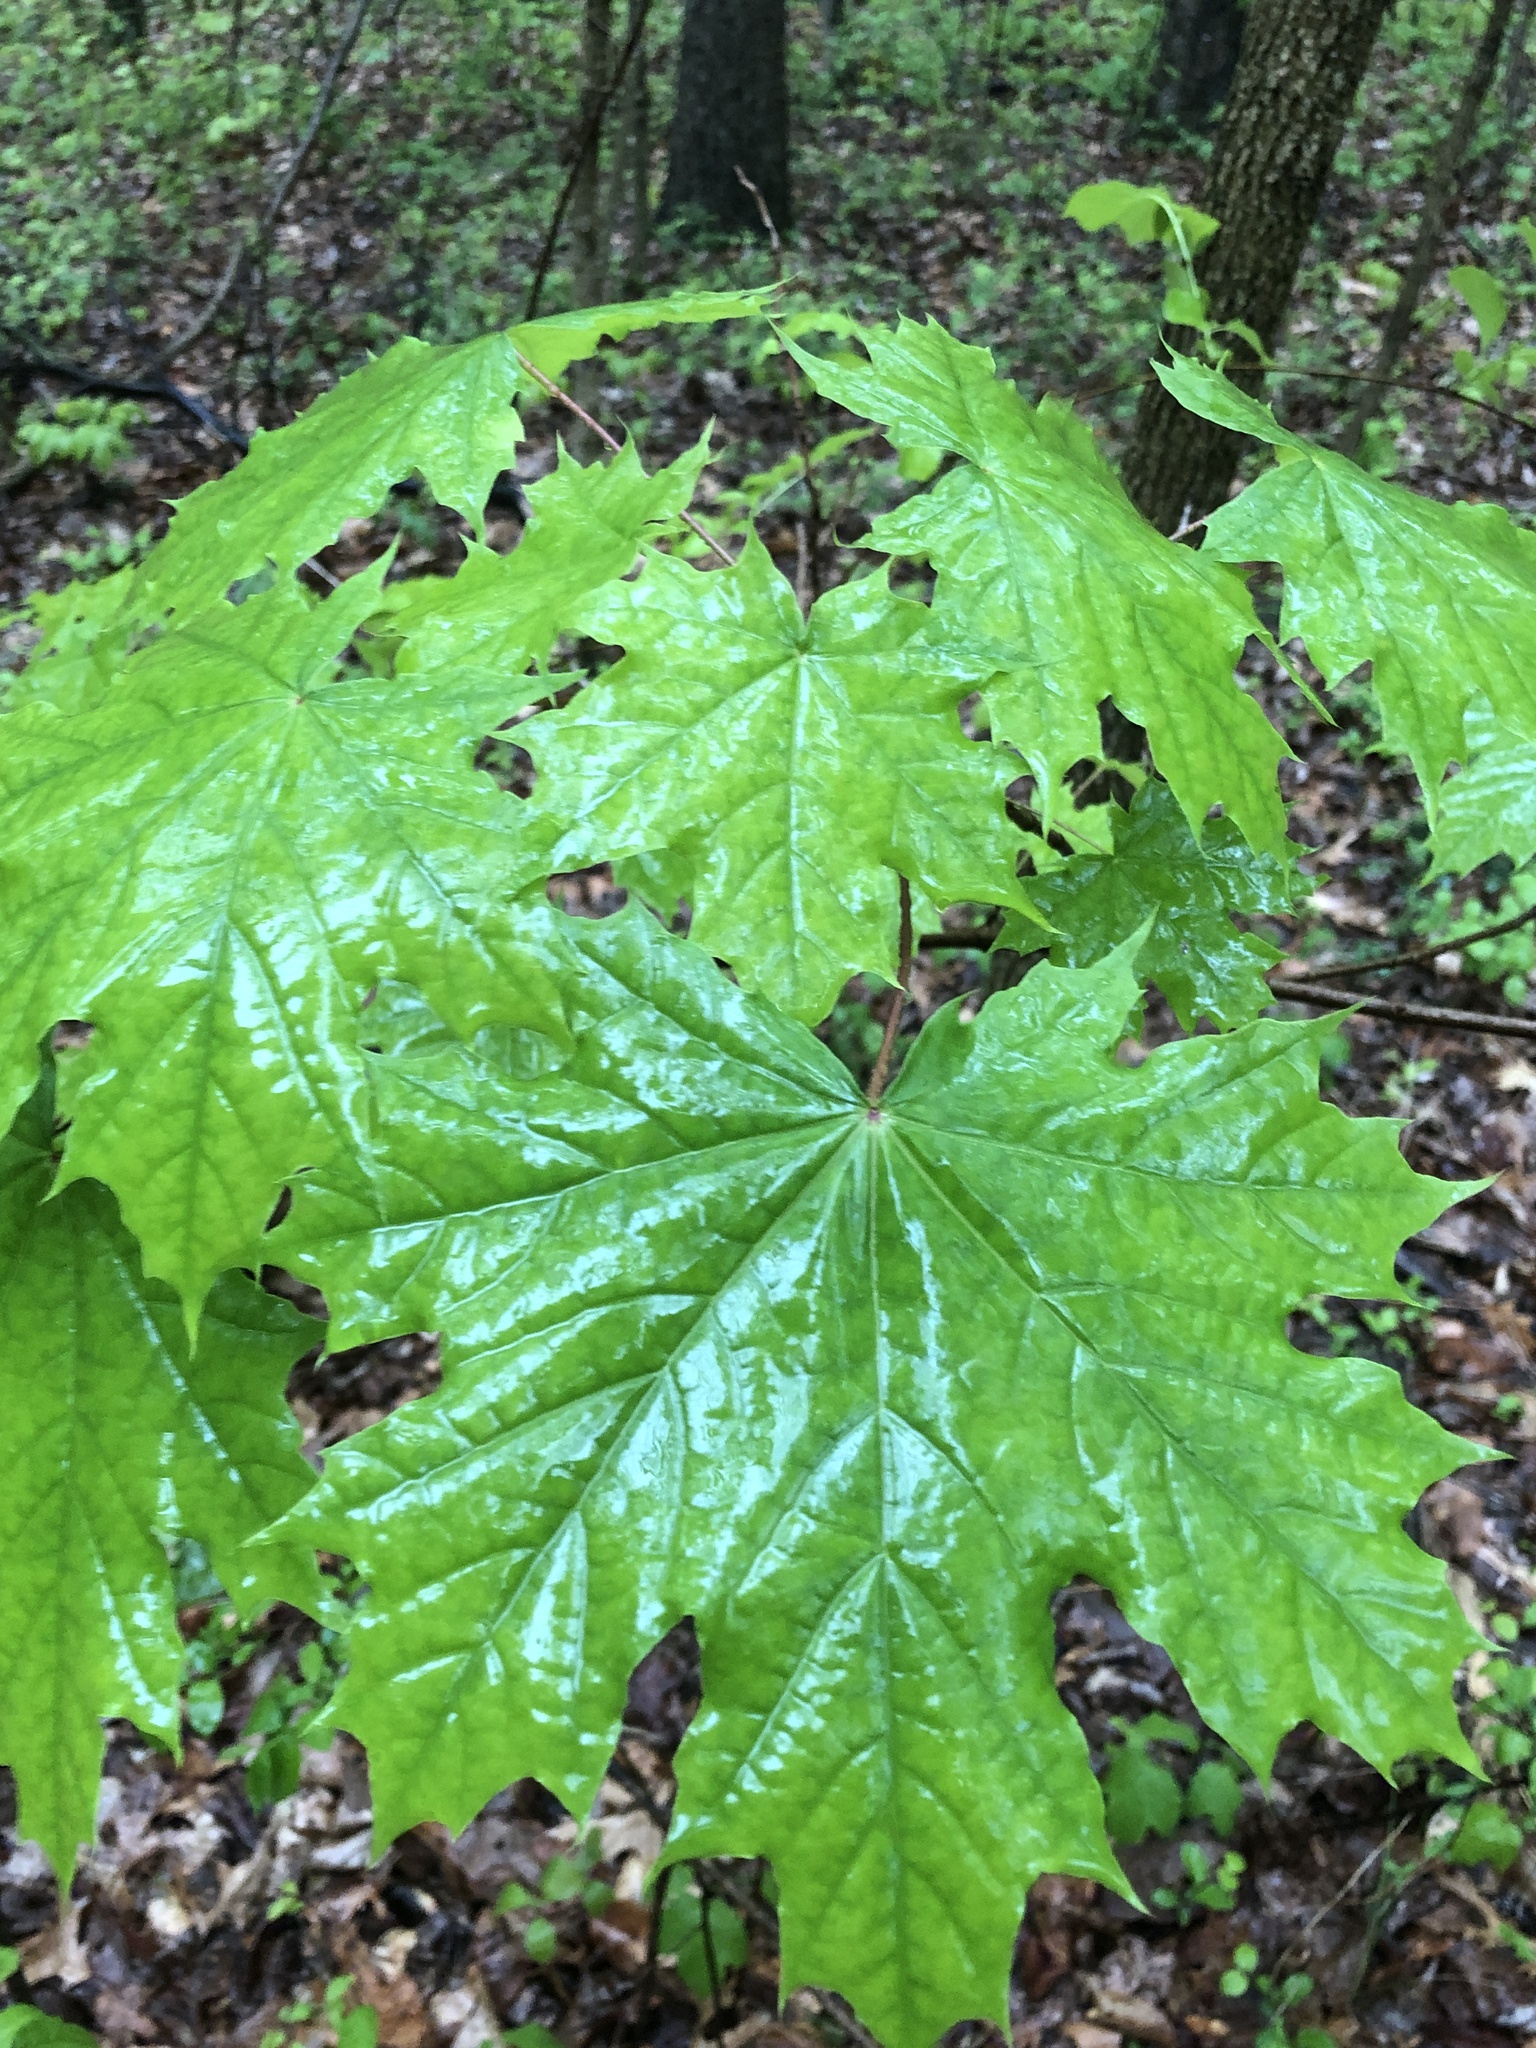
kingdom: Plantae
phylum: Tracheophyta
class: Magnoliopsida
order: Sapindales
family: Sapindaceae
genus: Acer
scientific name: Acer platanoides
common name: Norway maple
